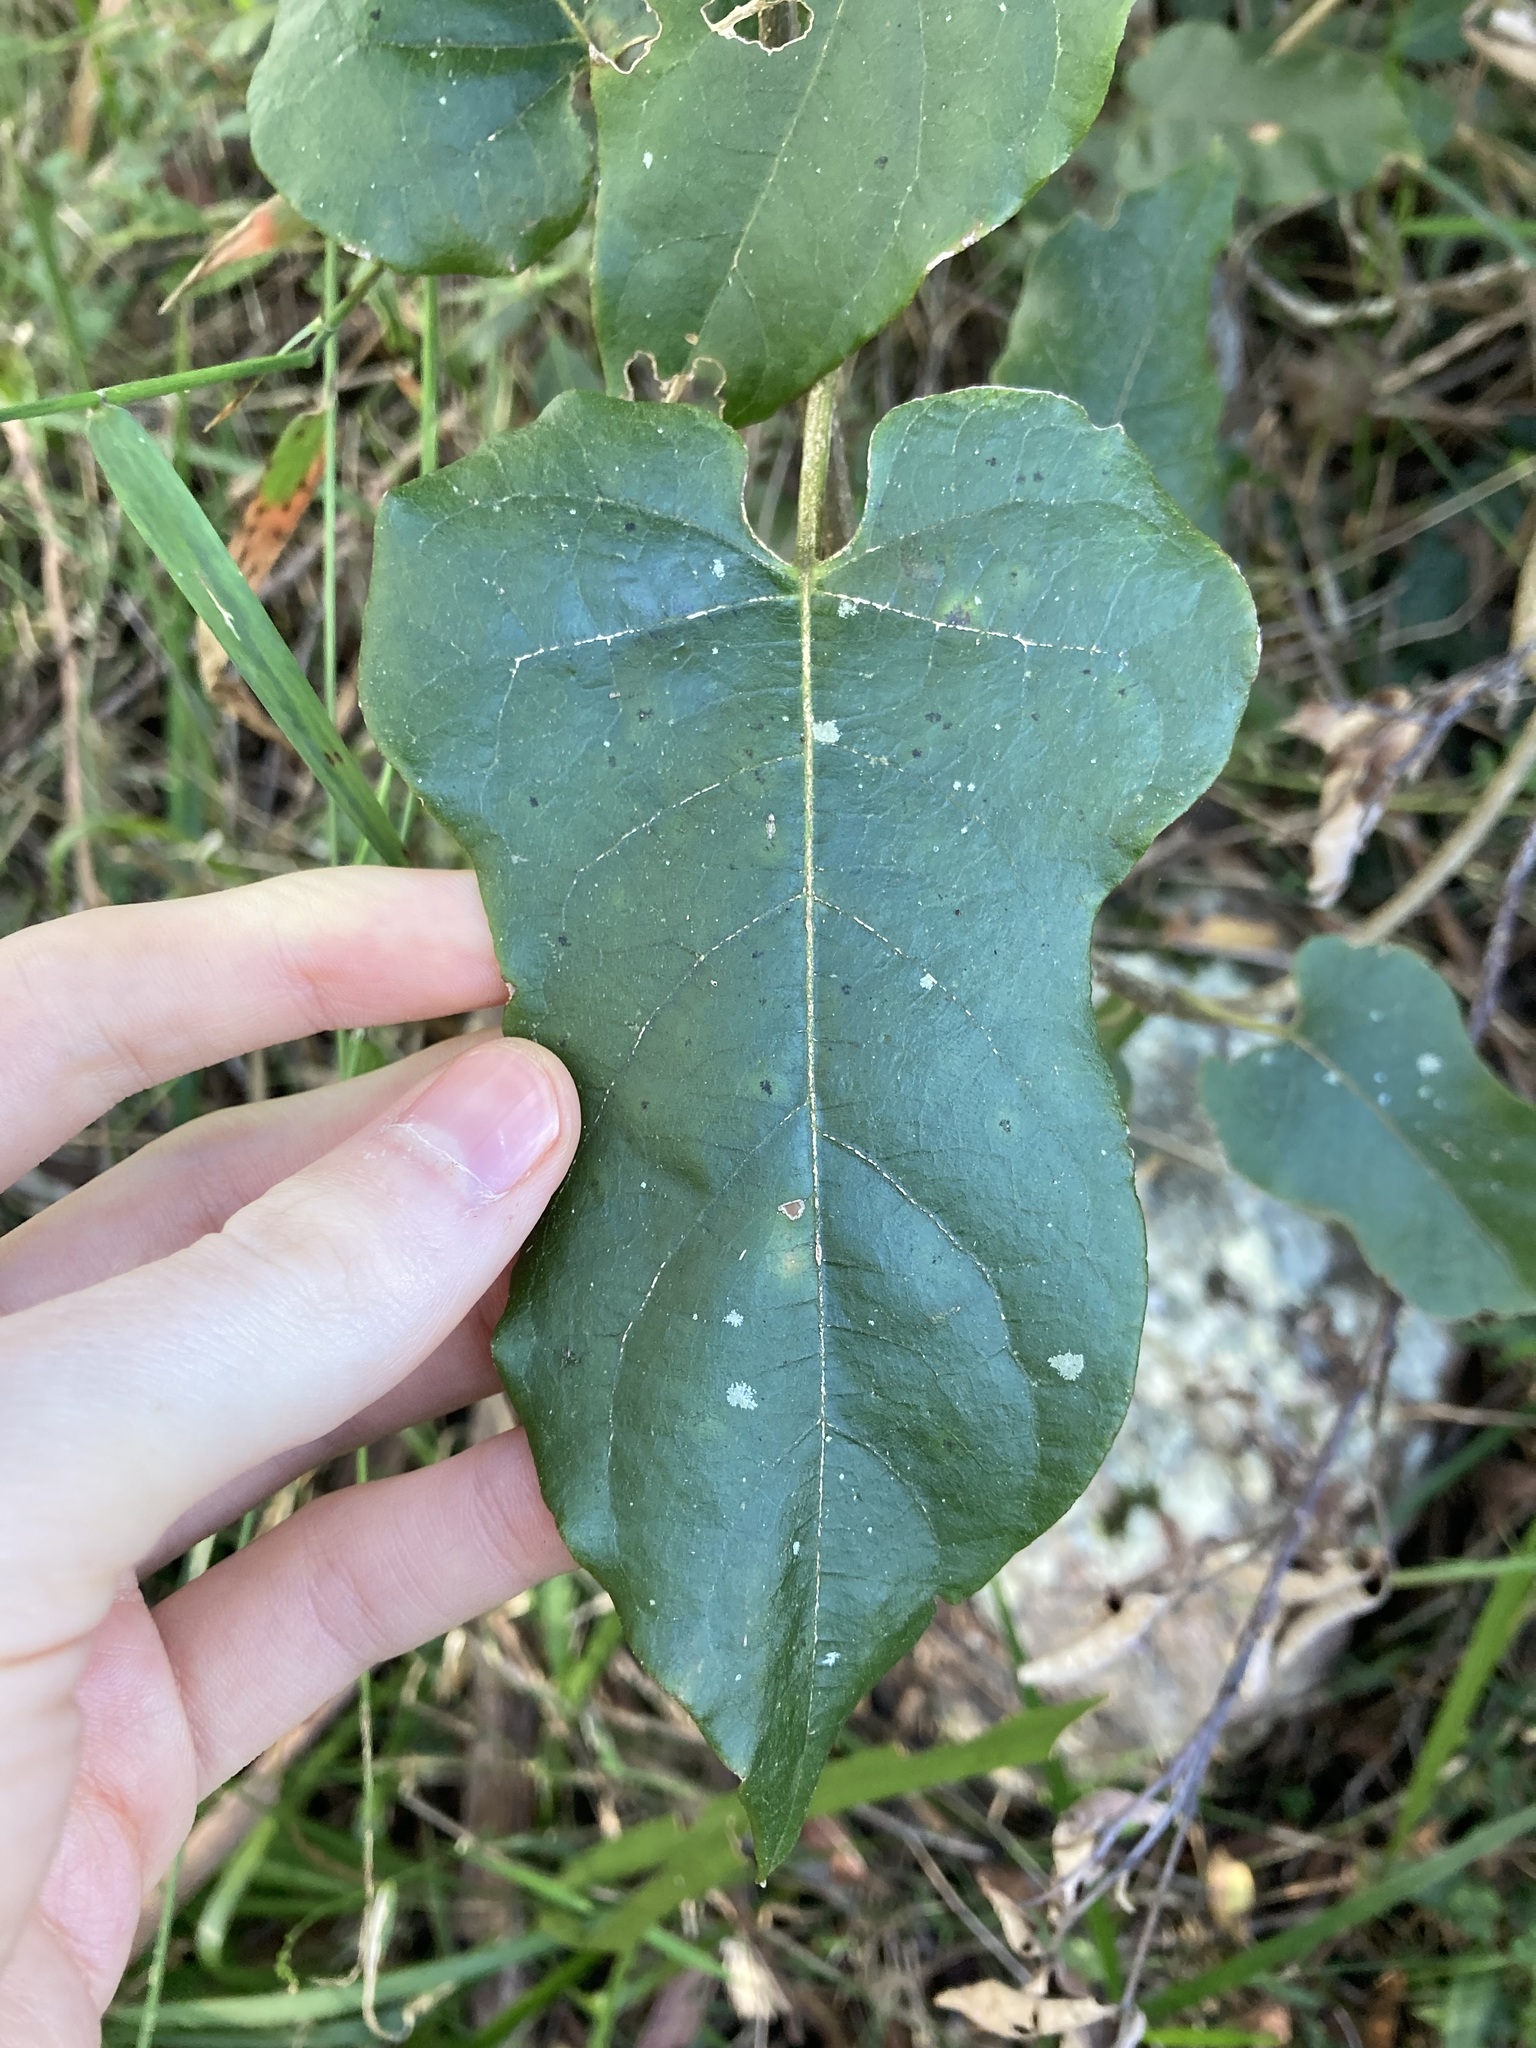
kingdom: Plantae
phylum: Tracheophyta
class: Magnoliopsida
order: Gentianales
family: Apocynaceae
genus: Parsonsia
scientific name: Parsonsia velutina
